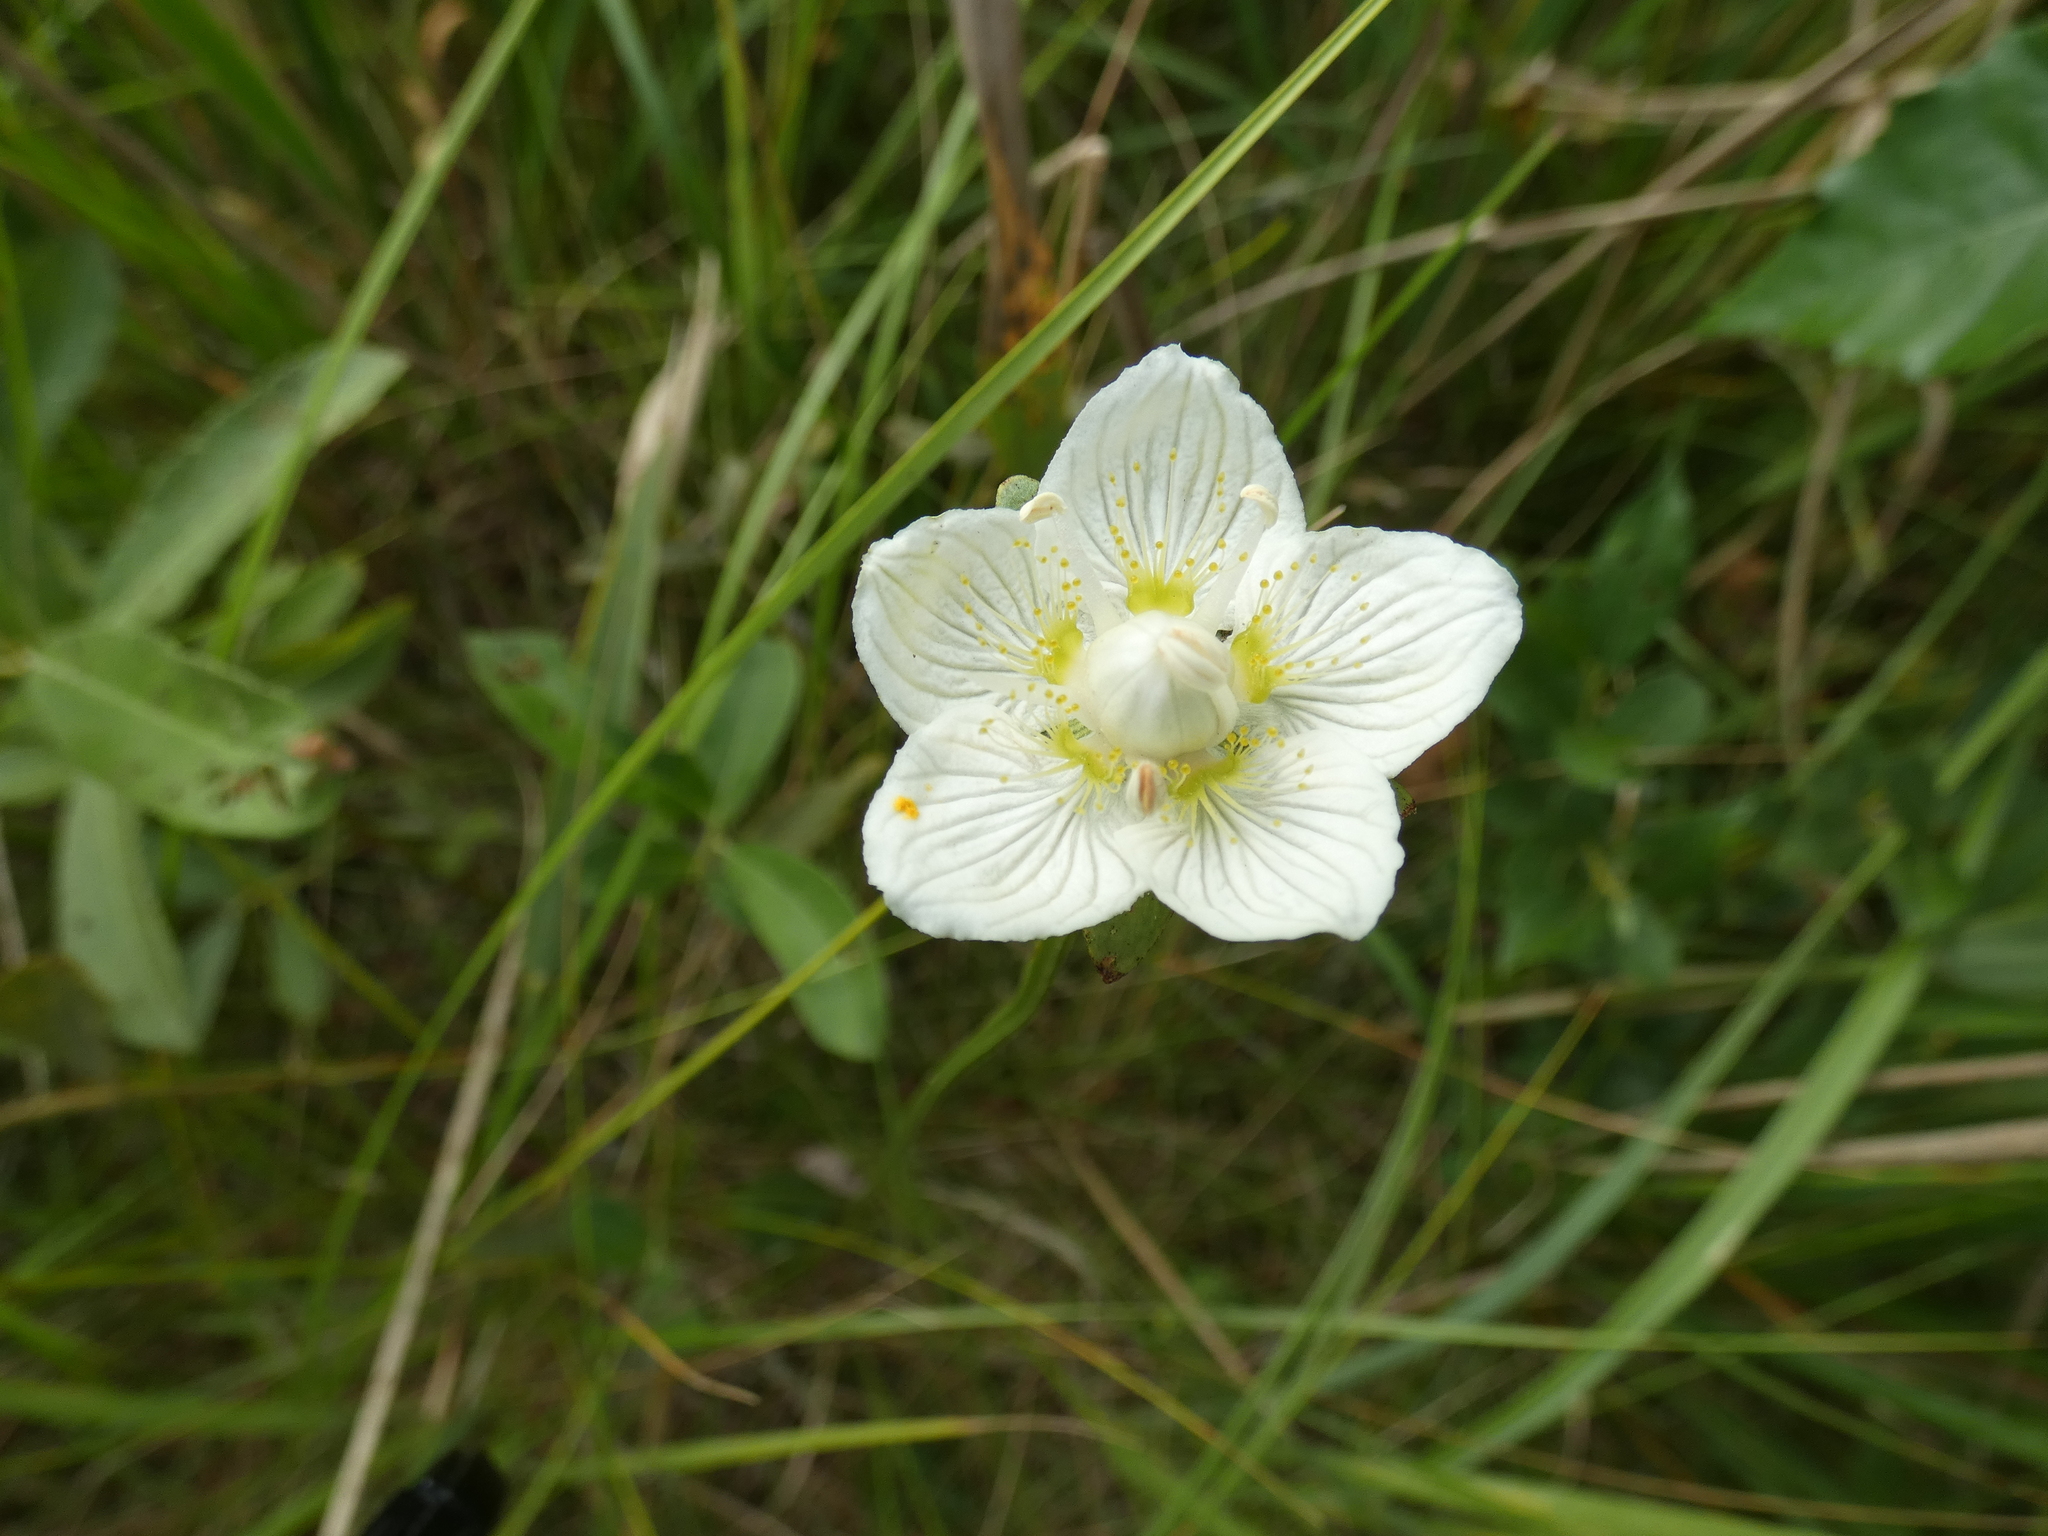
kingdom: Plantae
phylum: Tracheophyta
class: Magnoliopsida
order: Celastrales
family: Parnassiaceae
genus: Parnassia
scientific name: Parnassia palustris
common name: Grass-of-parnassus
